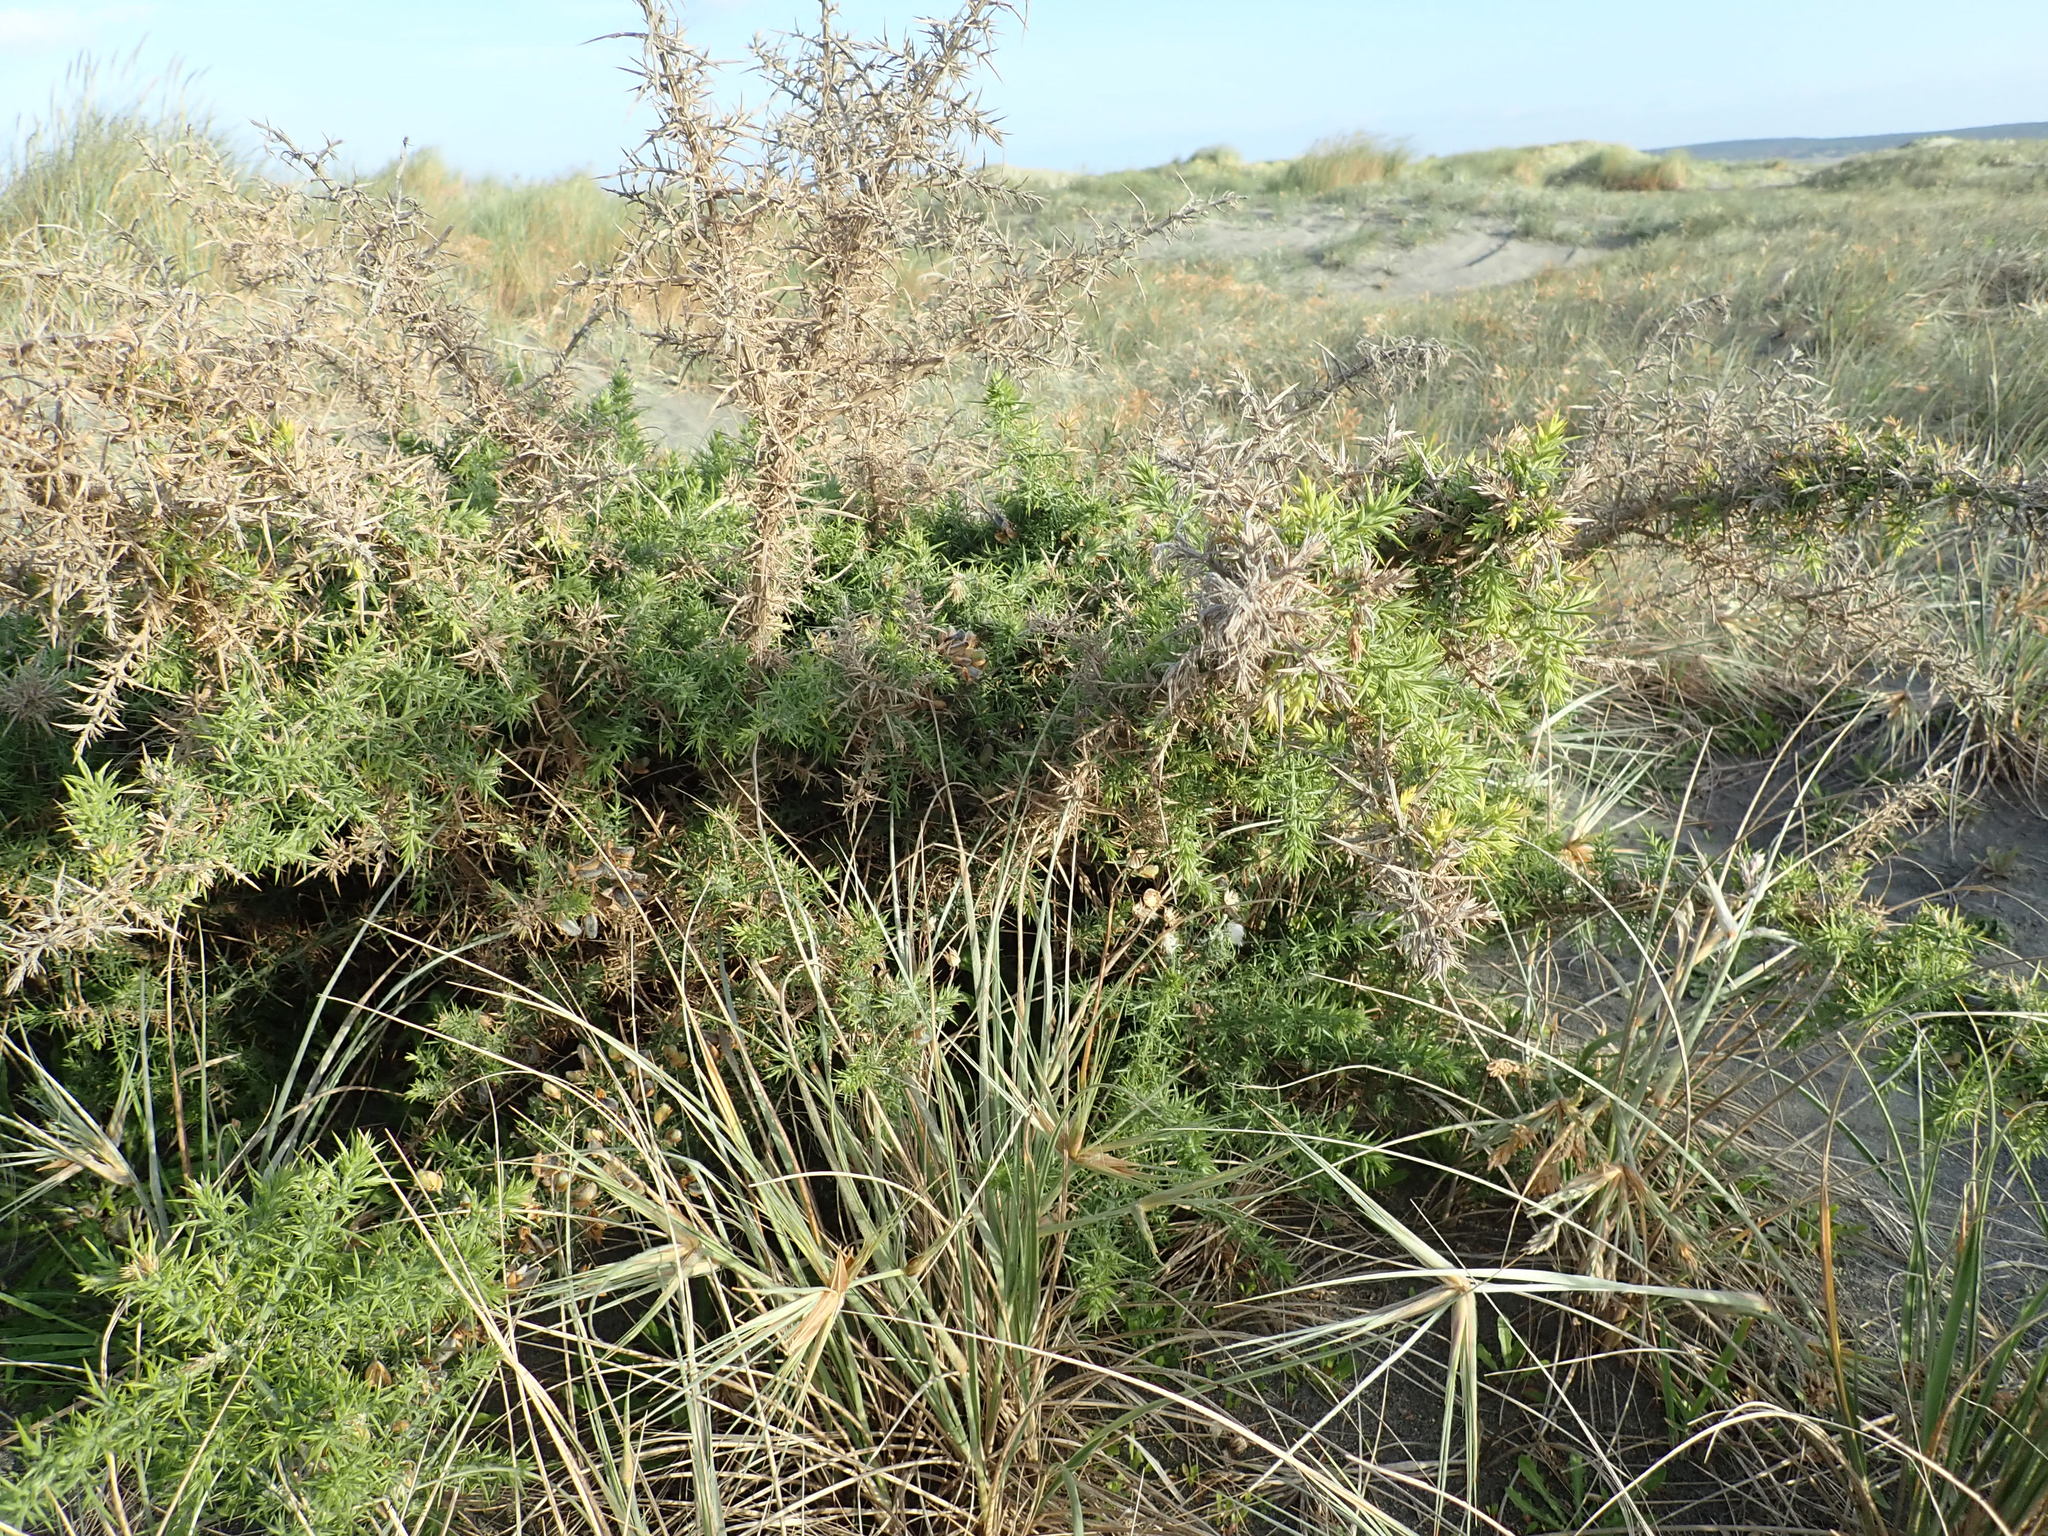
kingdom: Plantae
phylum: Tracheophyta
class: Magnoliopsida
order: Fabales
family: Fabaceae
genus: Ulex
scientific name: Ulex europaeus
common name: Common gorse
